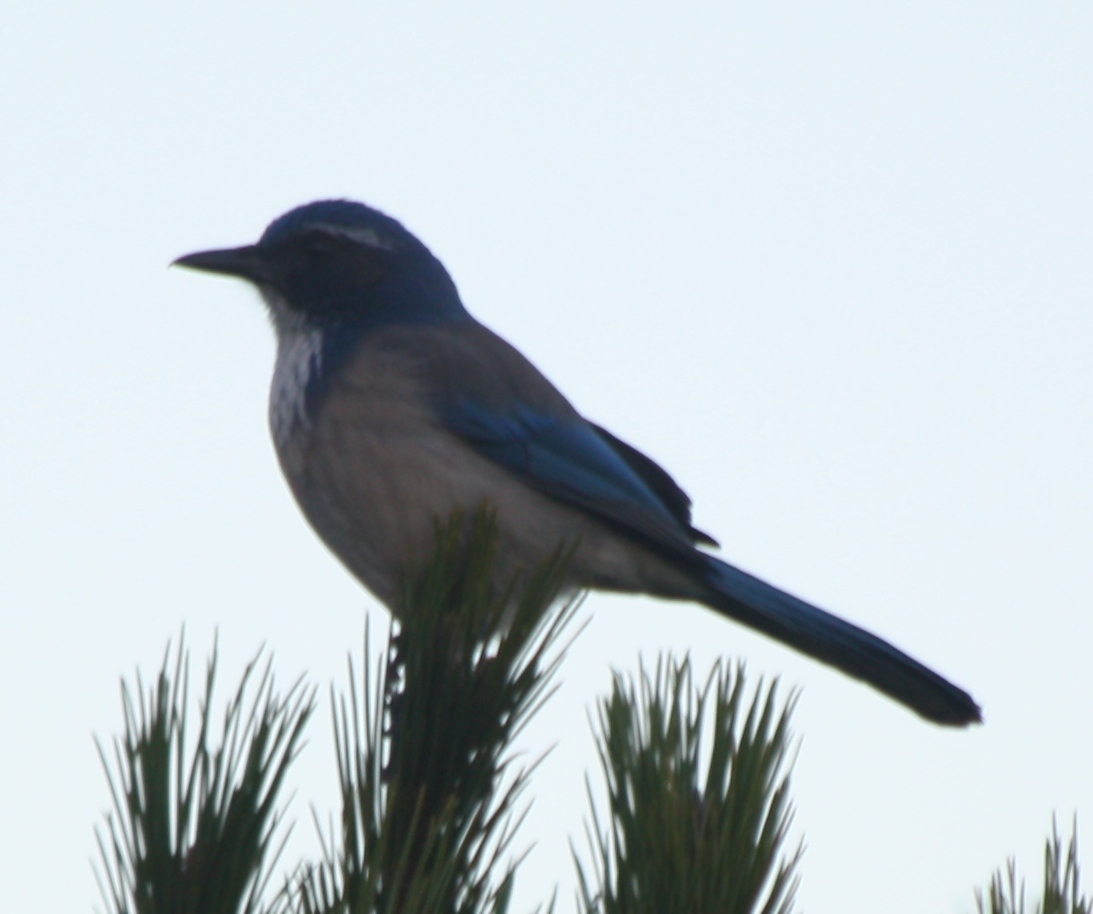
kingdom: Animalia
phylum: Chordata
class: Aves
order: Passeriformes
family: Corvidae
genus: Aphelocoma
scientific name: Aphelocoma californica
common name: California scrub-jay
